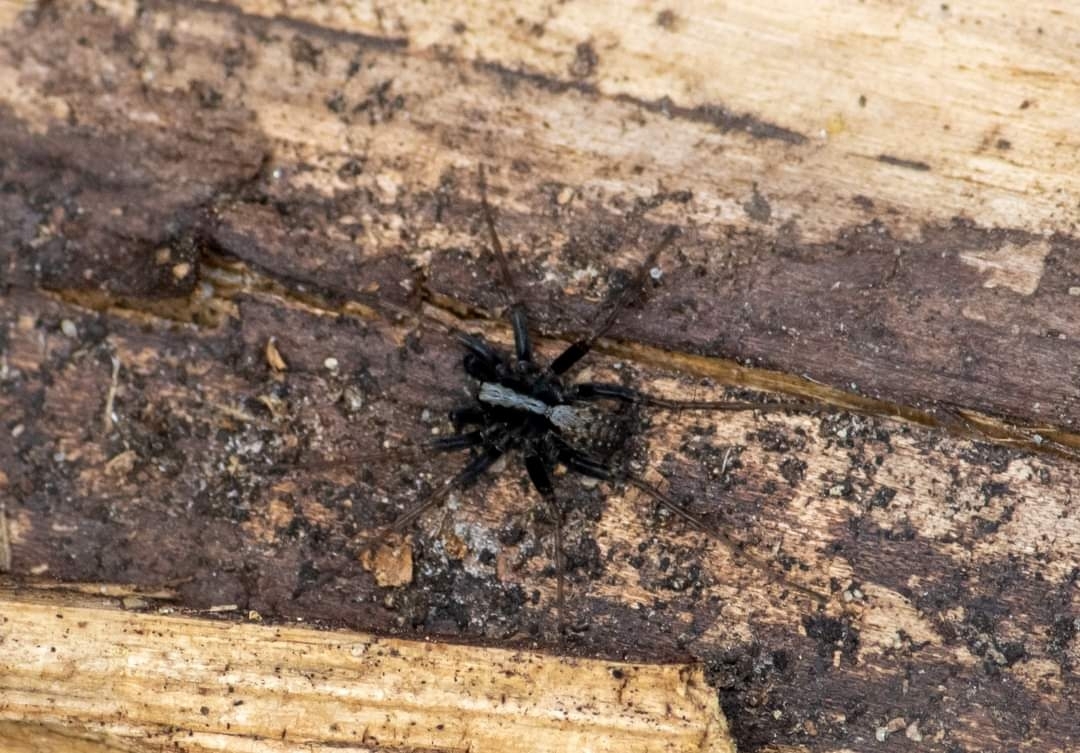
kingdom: Animalia
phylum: Arthropoda
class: Arachnida
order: Araneae
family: Lycosidae
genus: Pardosa
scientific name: Pardosa
